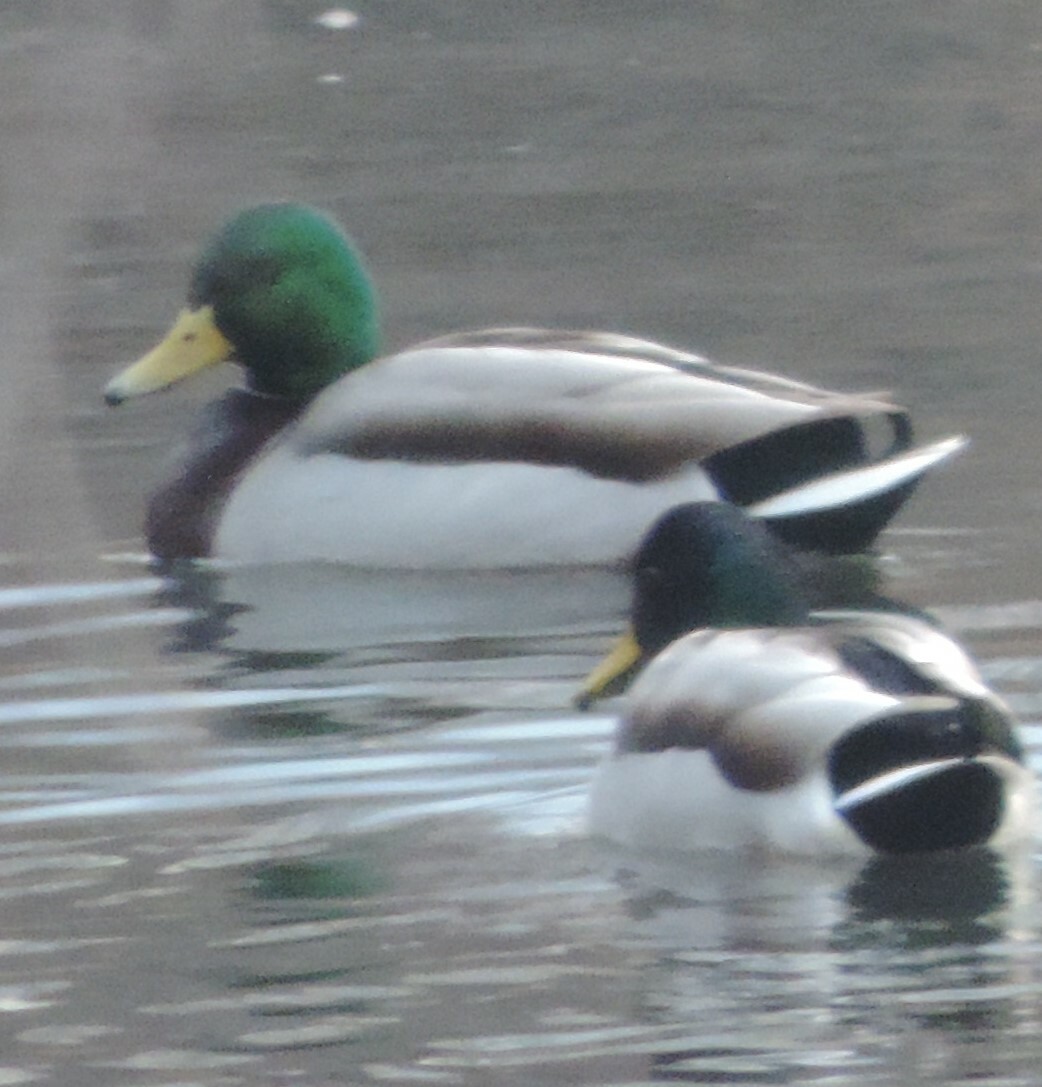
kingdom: Animalia
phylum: Chordata
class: Aves
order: Anseriformes
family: Anatidae
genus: Anas
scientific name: Anas platyrhynchos
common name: Mallard
